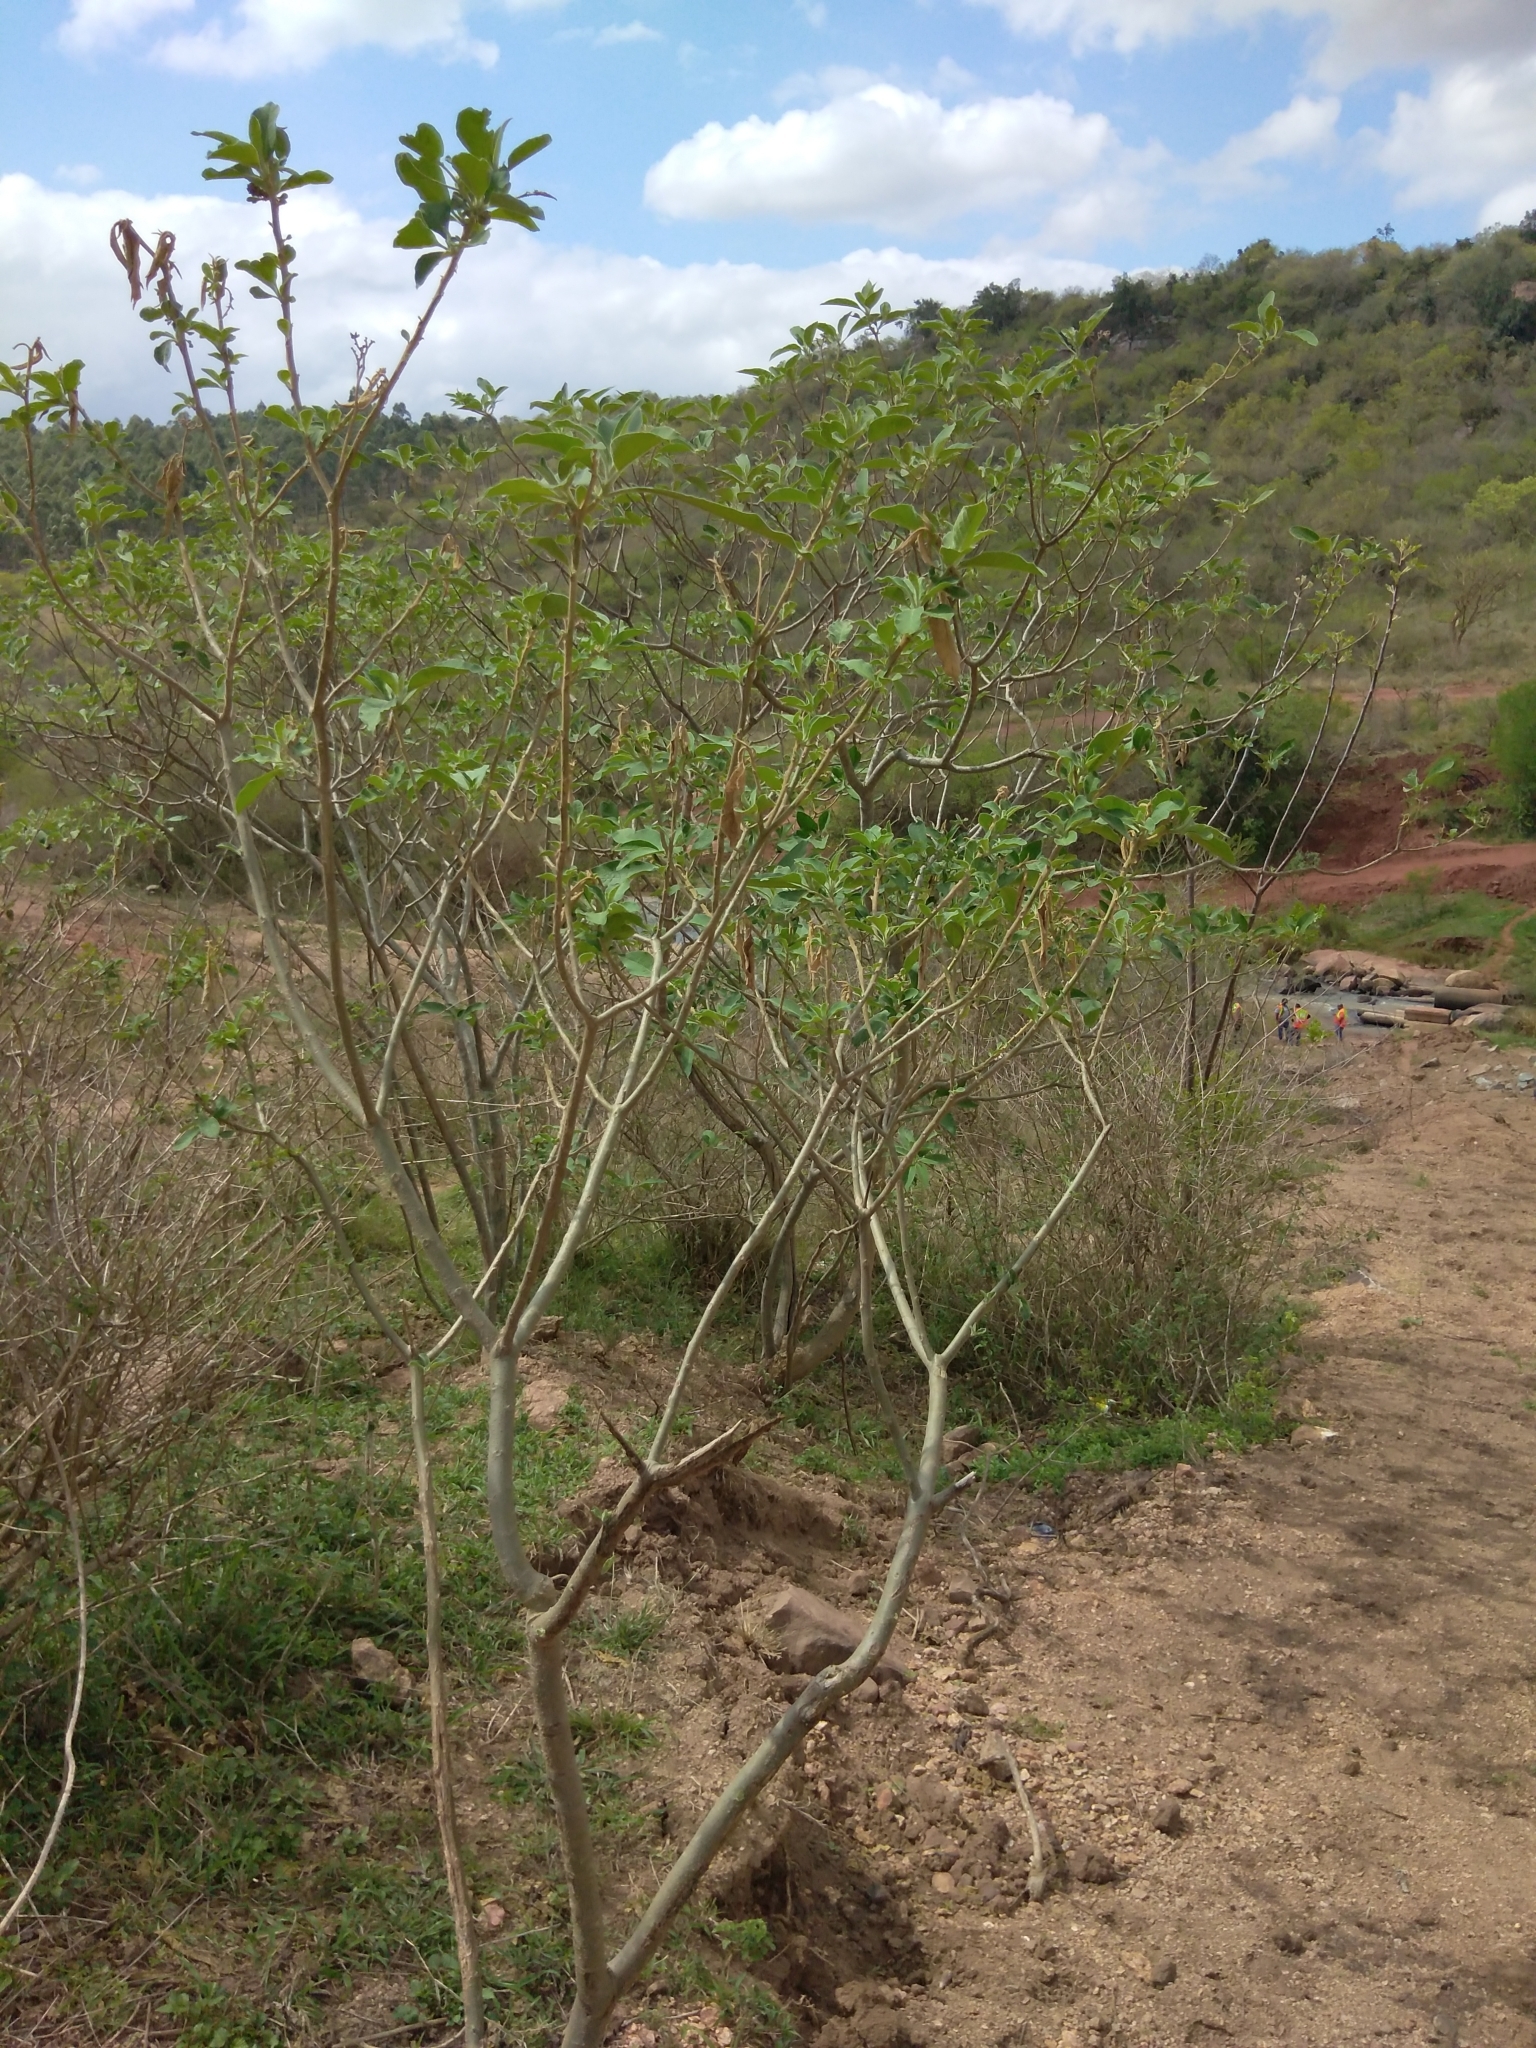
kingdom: Plantae
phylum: Tracheophyta
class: Magnoliopsida
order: Solanales
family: Solanaceae
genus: Solanum
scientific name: Solanum mauritianum
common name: Earleaf nightshade
